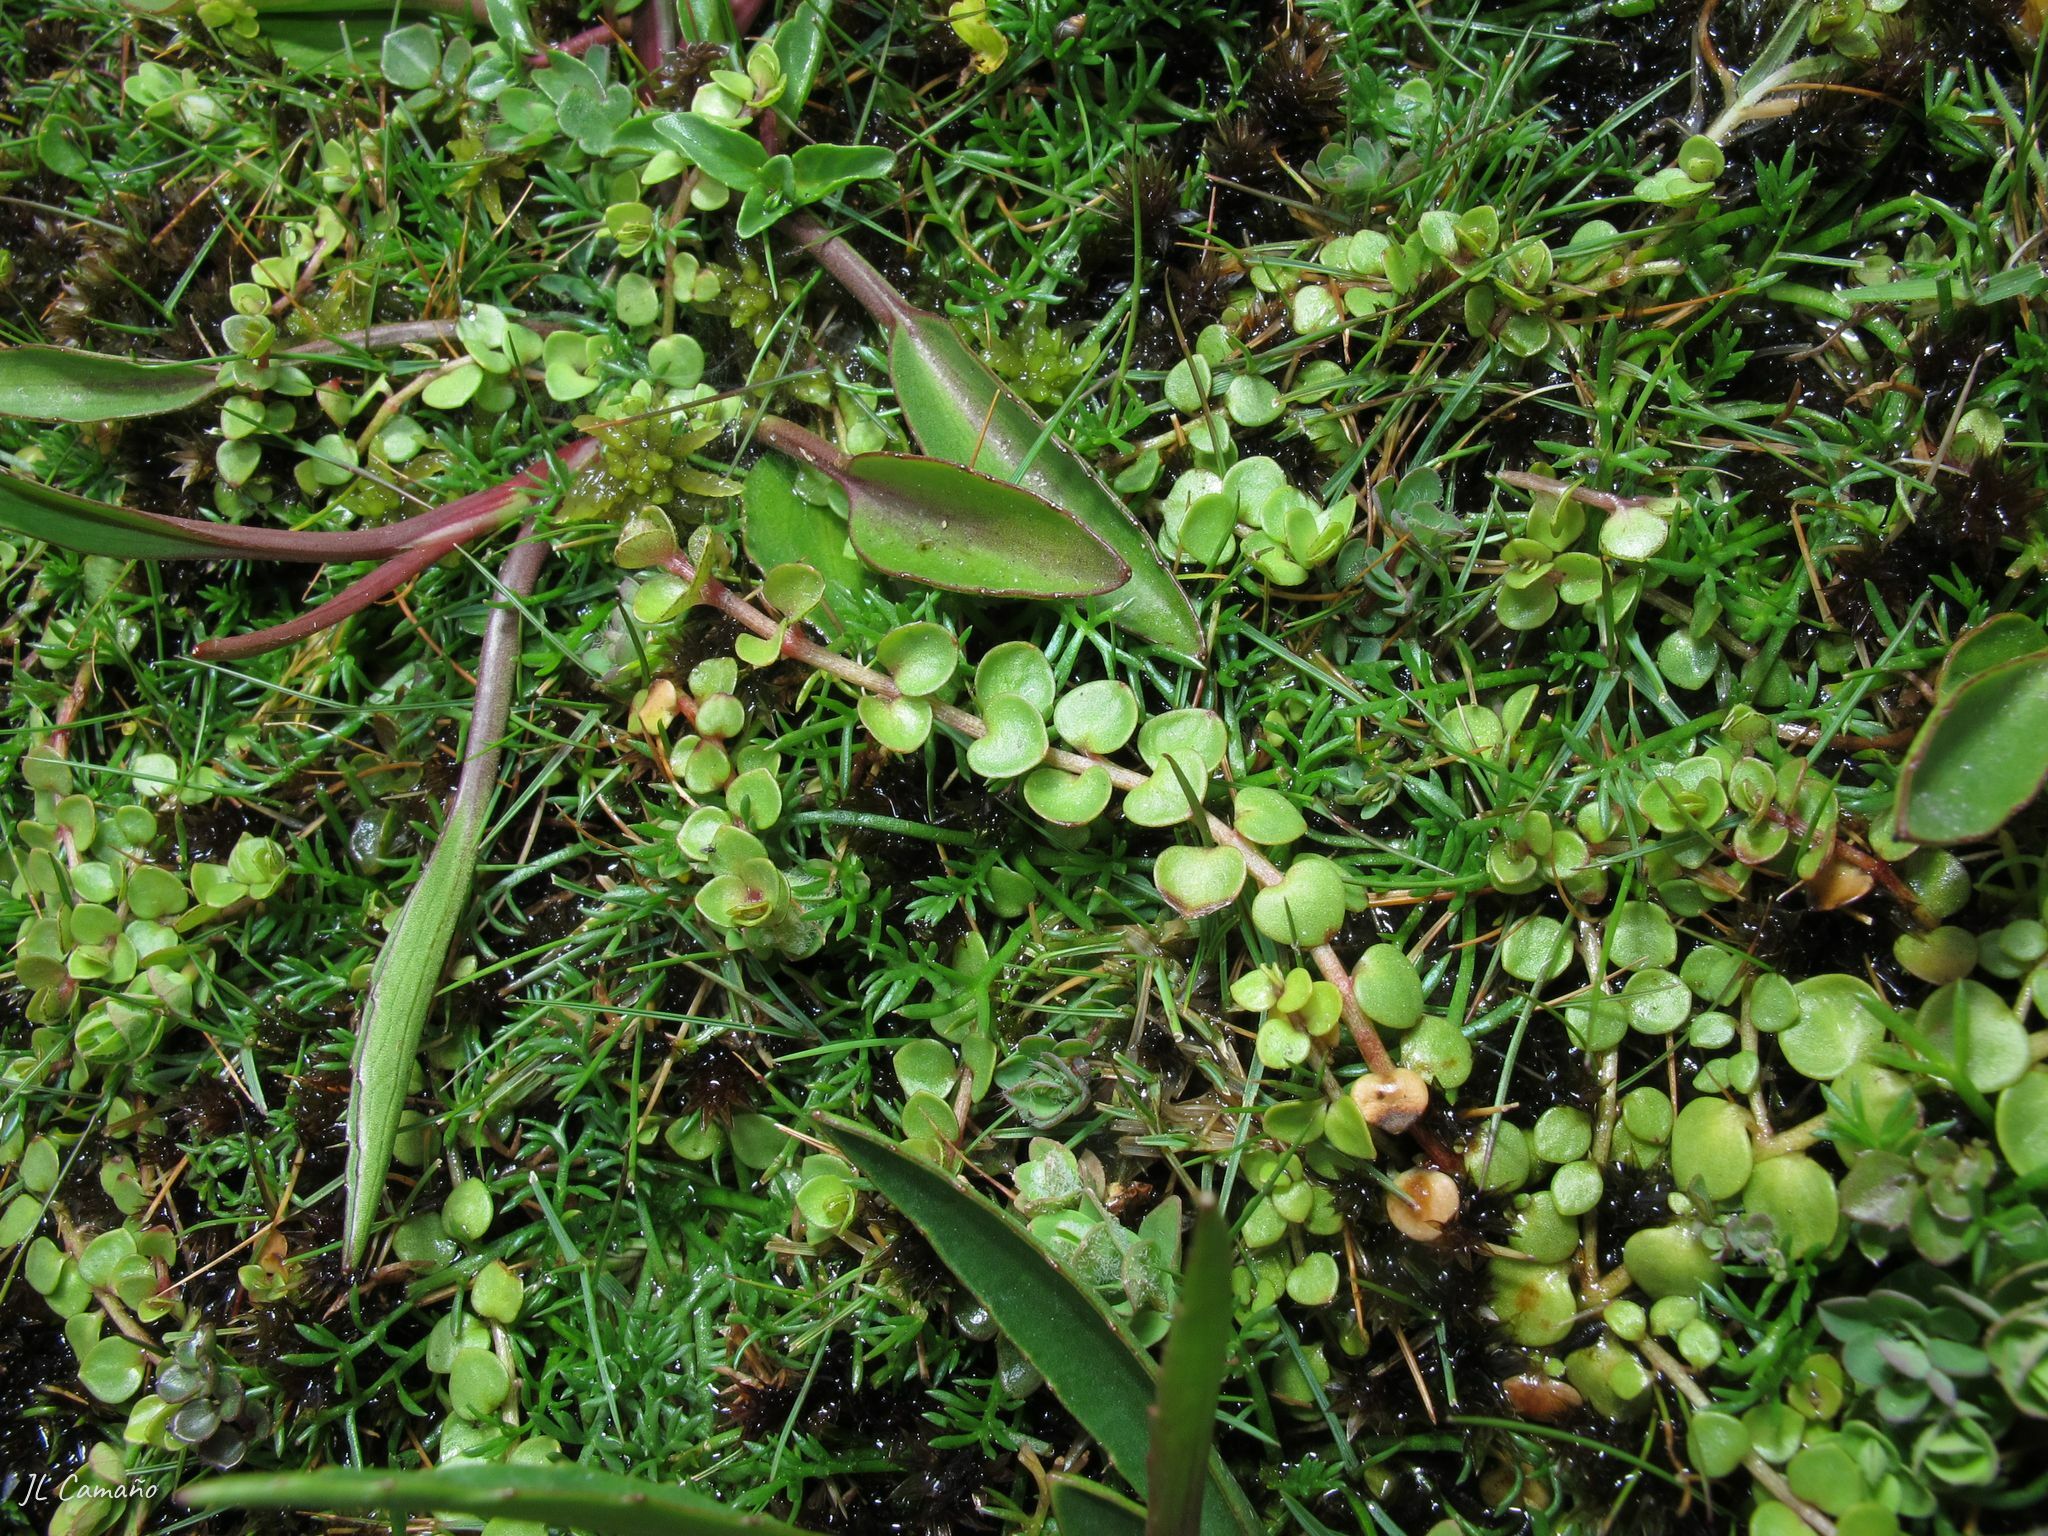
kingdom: Plantae
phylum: Tracheophyta
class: Magnoliopsida
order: Ericales
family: Primulaceae
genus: Lysimachia
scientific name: Lysimachia tenella
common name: European bog pimpernel
